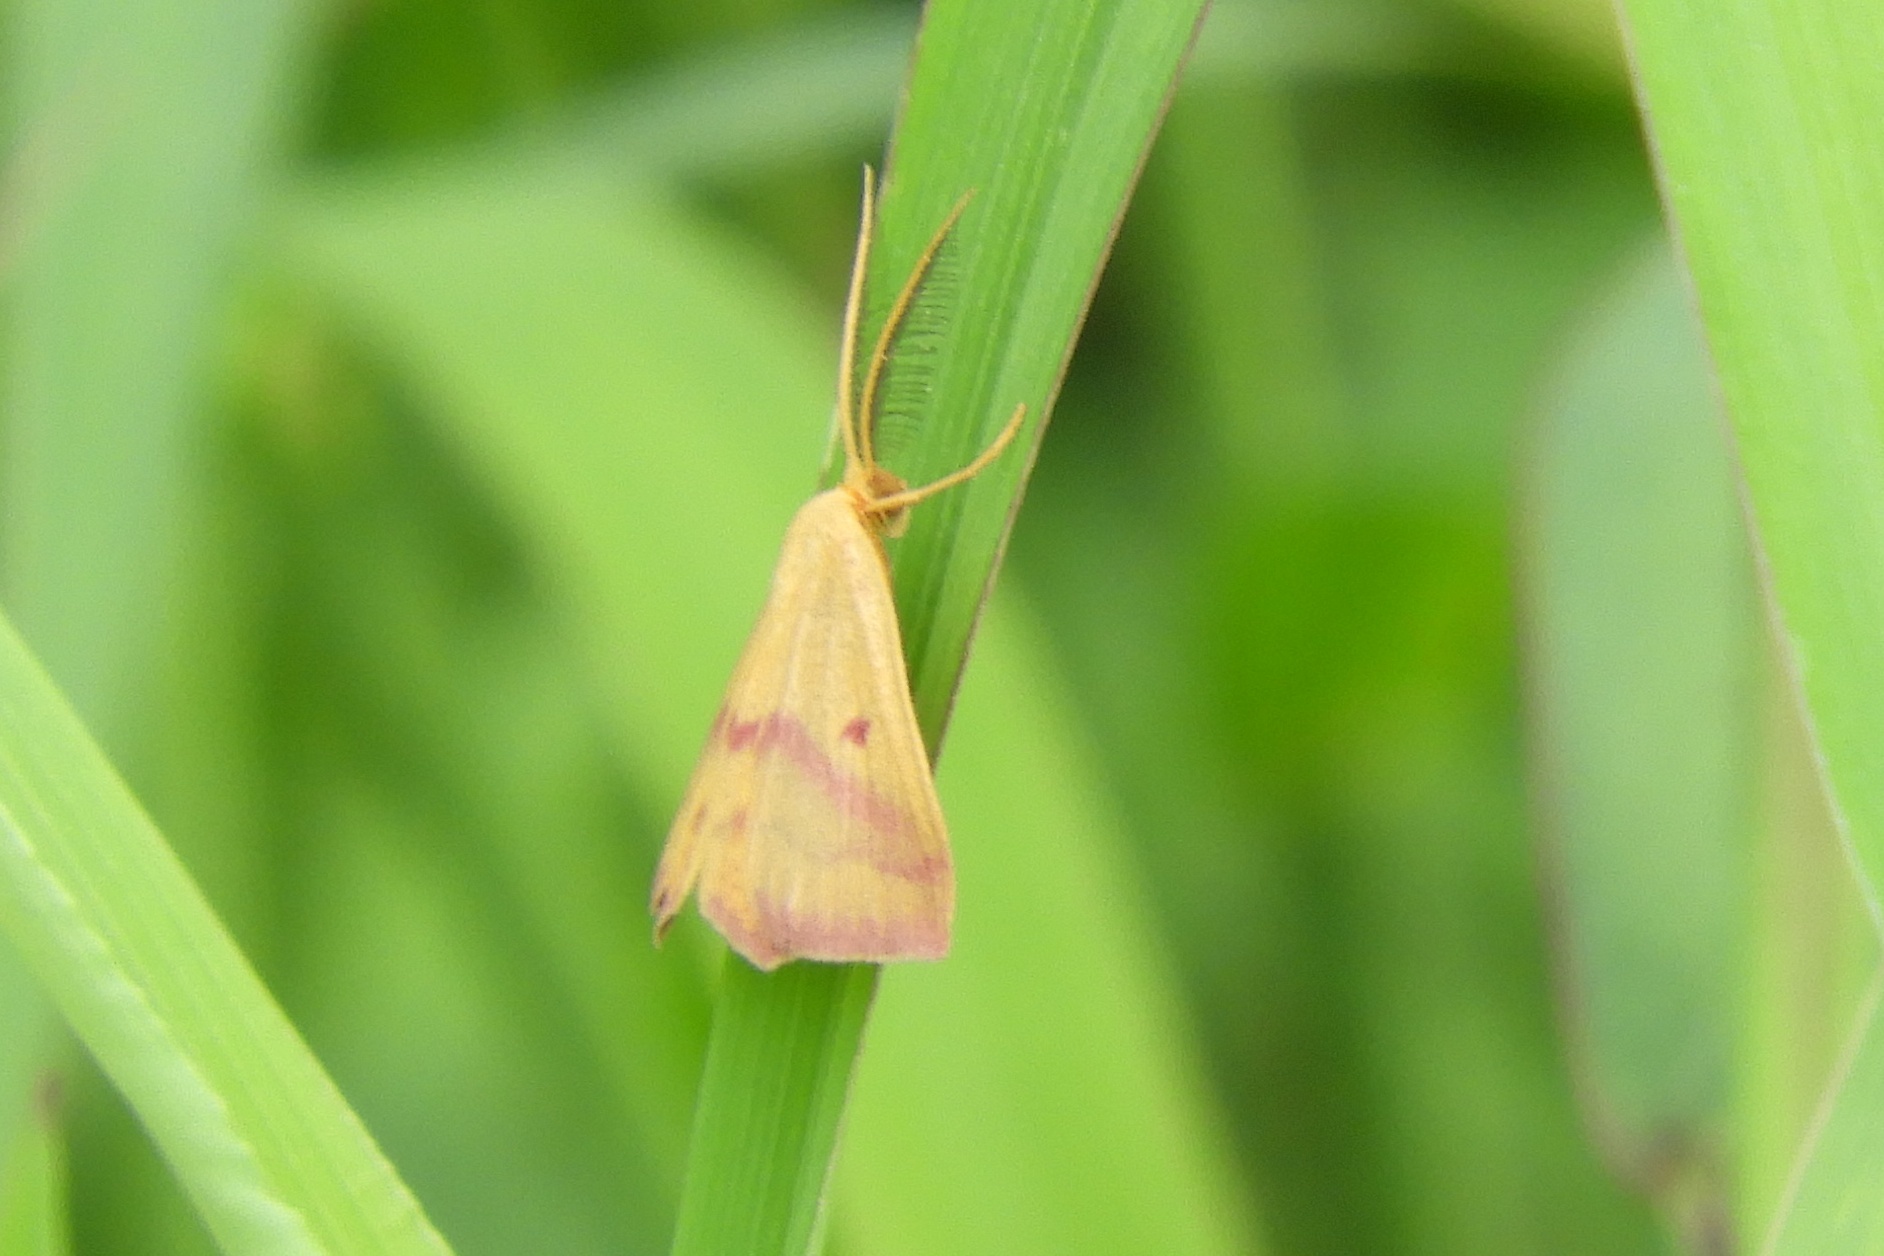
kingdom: Animalia
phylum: Arthropoda
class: Insecta
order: Lepidoptera
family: Geometridae
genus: Haematopis
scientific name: Haematopis grataria
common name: Chickweed geometer
